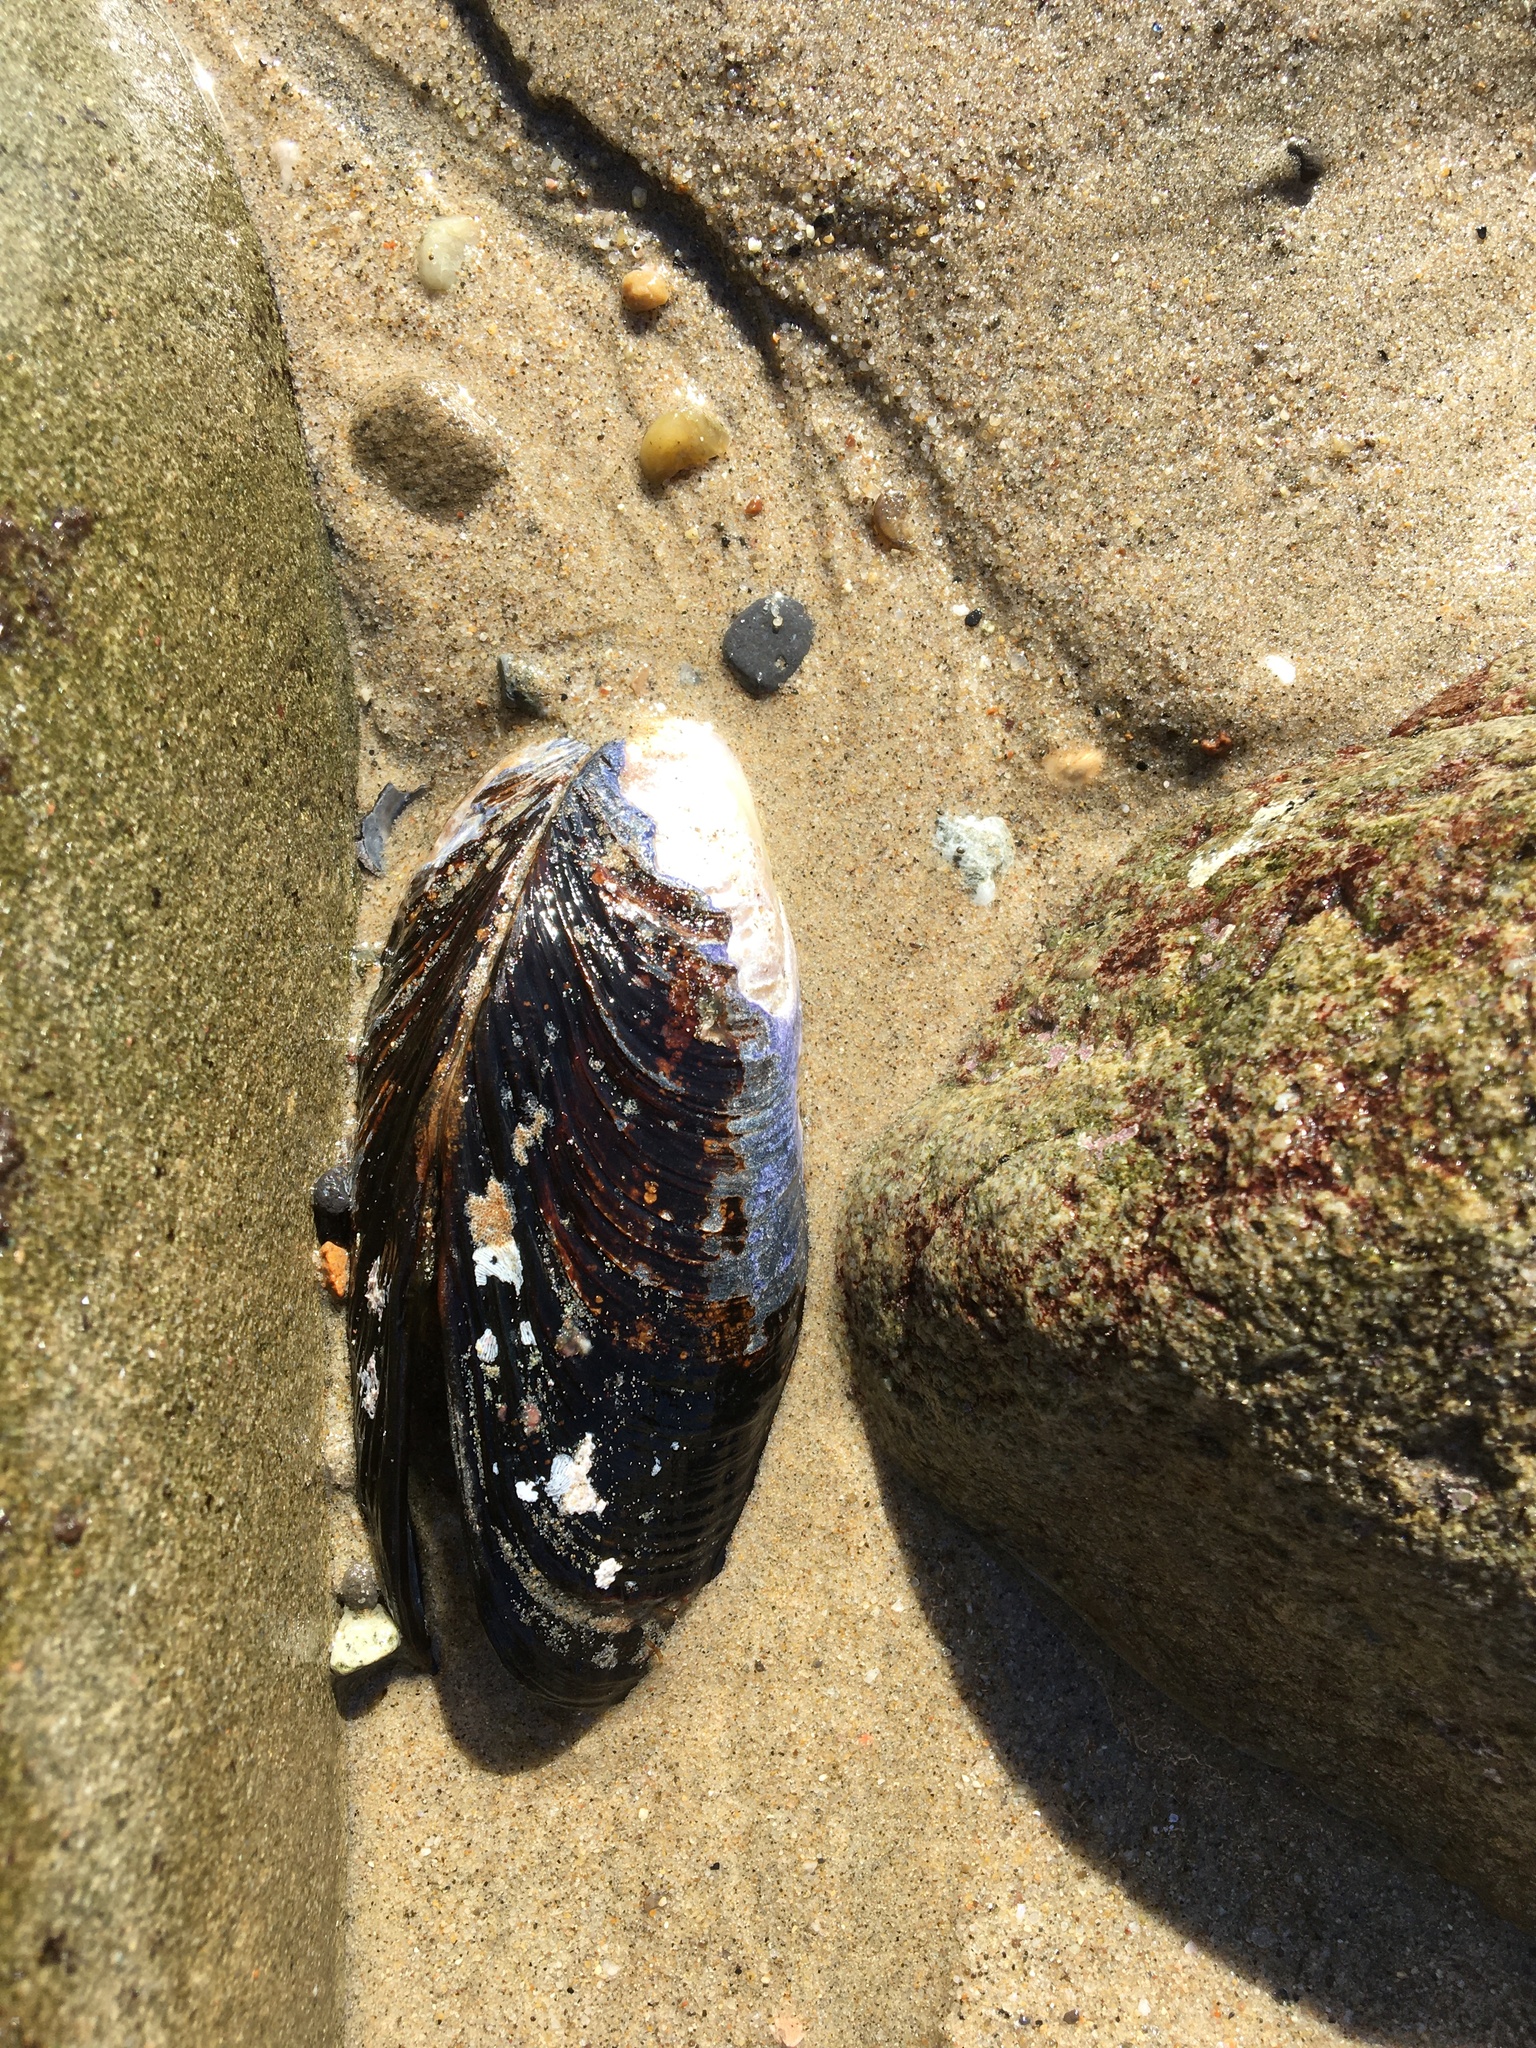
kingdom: Animalia
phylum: Mollusca
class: Bivalvia
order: Mytilida
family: Mytilidae
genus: Mytilus
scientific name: Mytilus californianus
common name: California mussel
